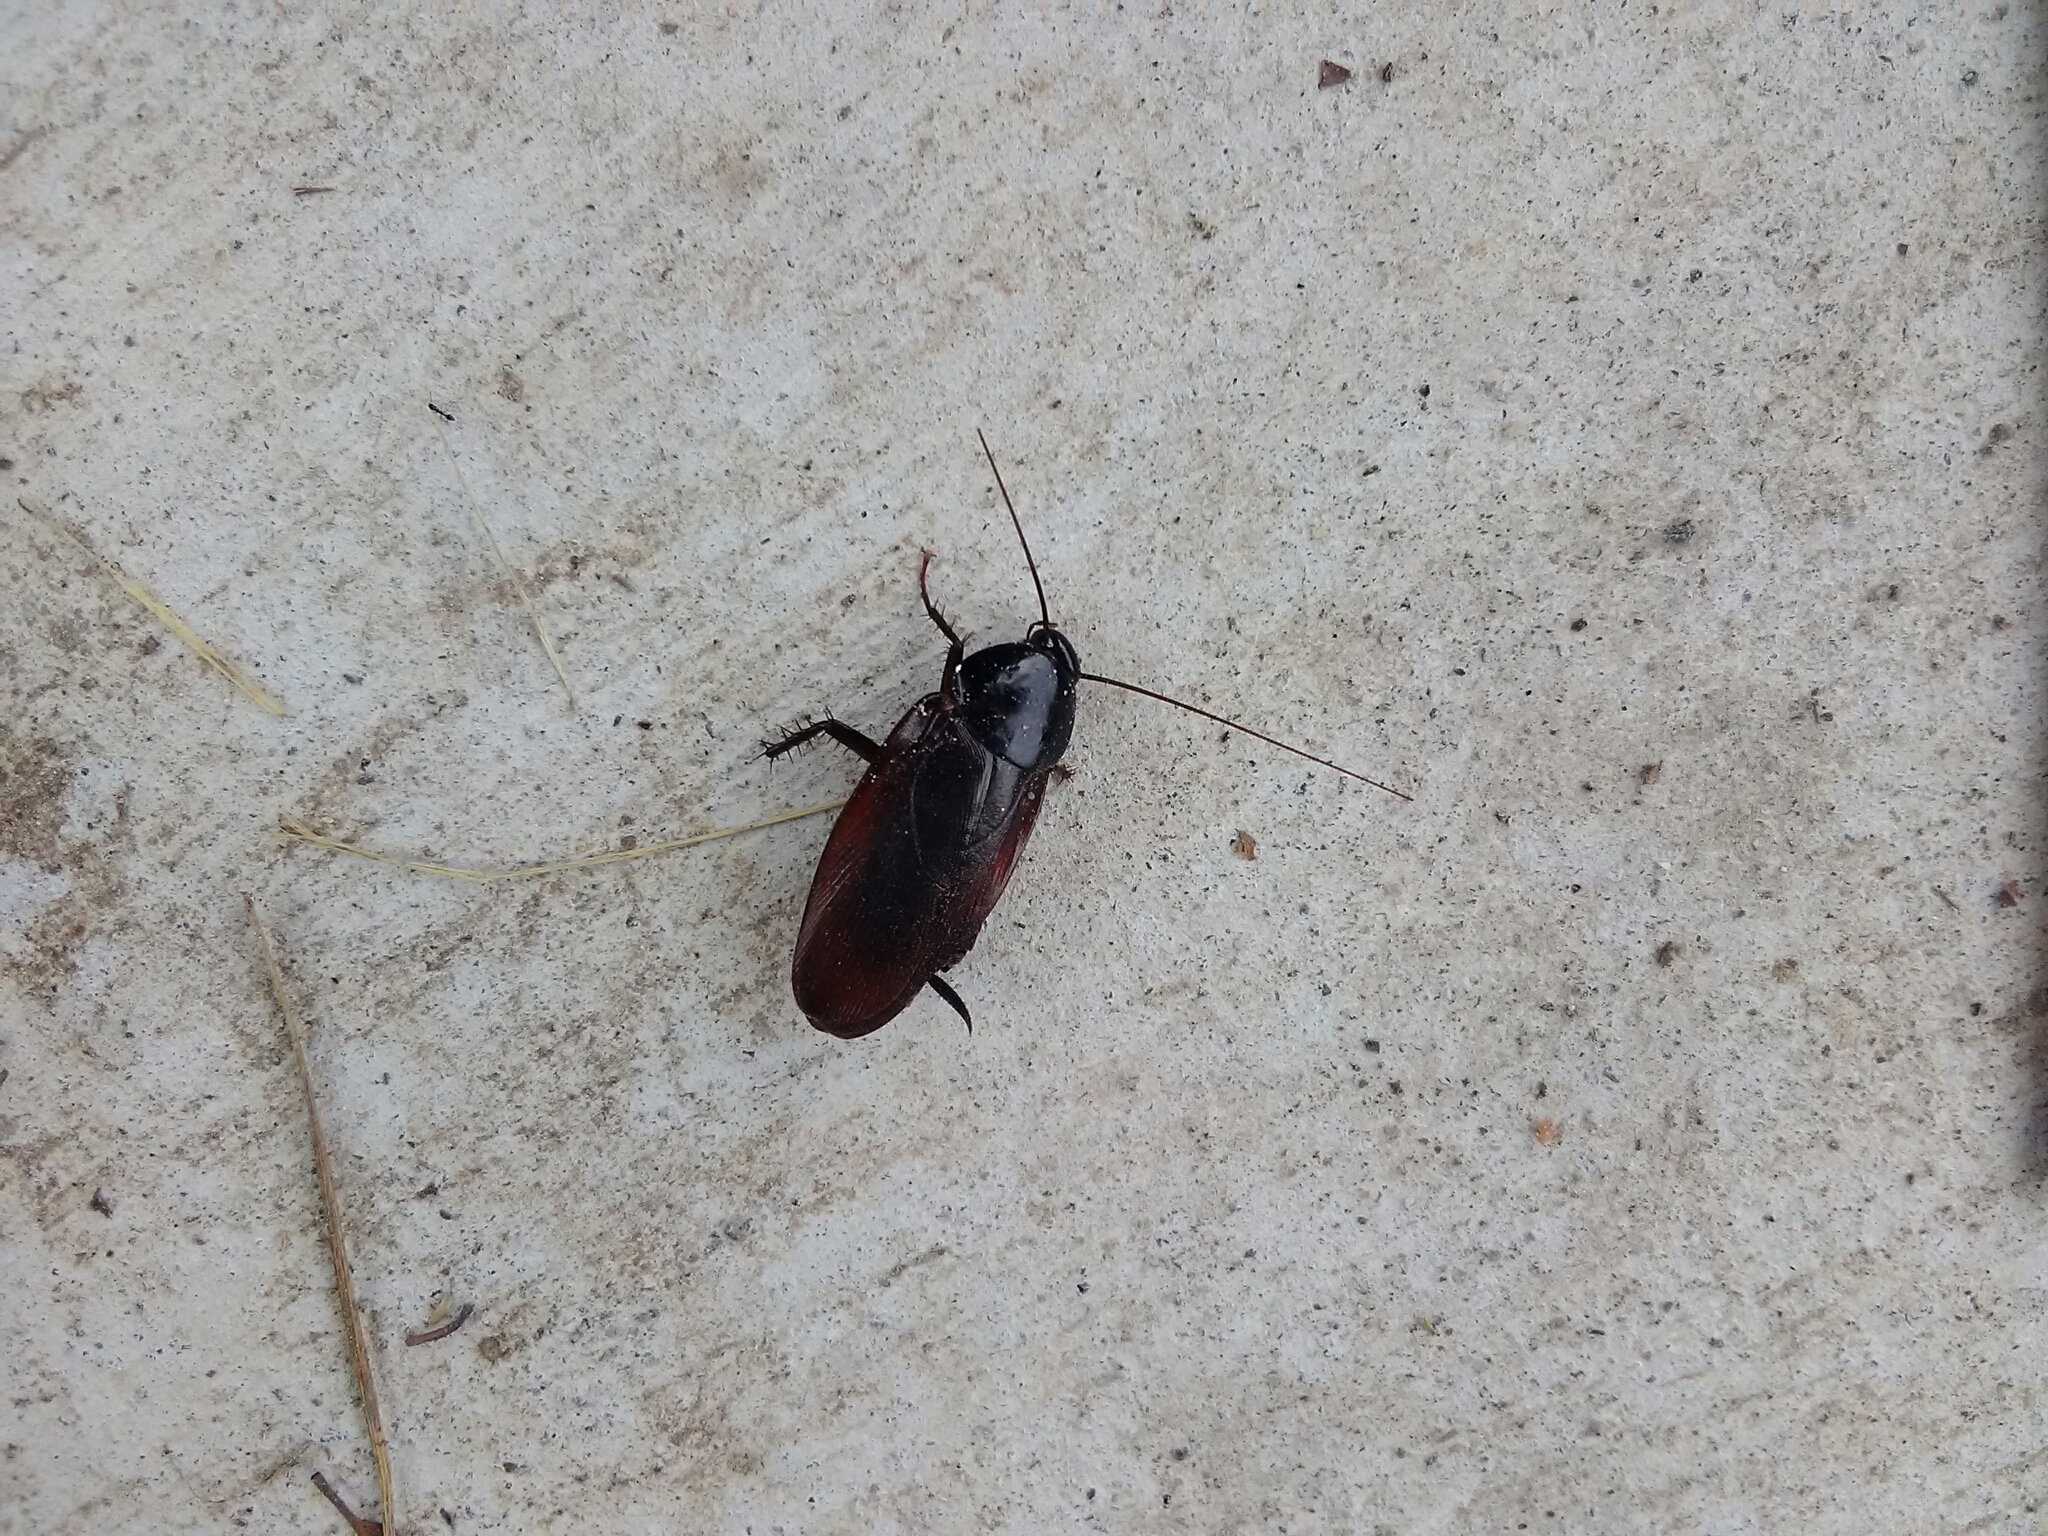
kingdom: Animalia
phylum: Arthropoda
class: Insecta
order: Blattodea
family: Blattidae
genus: Periplaneta
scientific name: Periplaneta fuliginosa
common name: Smokeybrown cockroad
